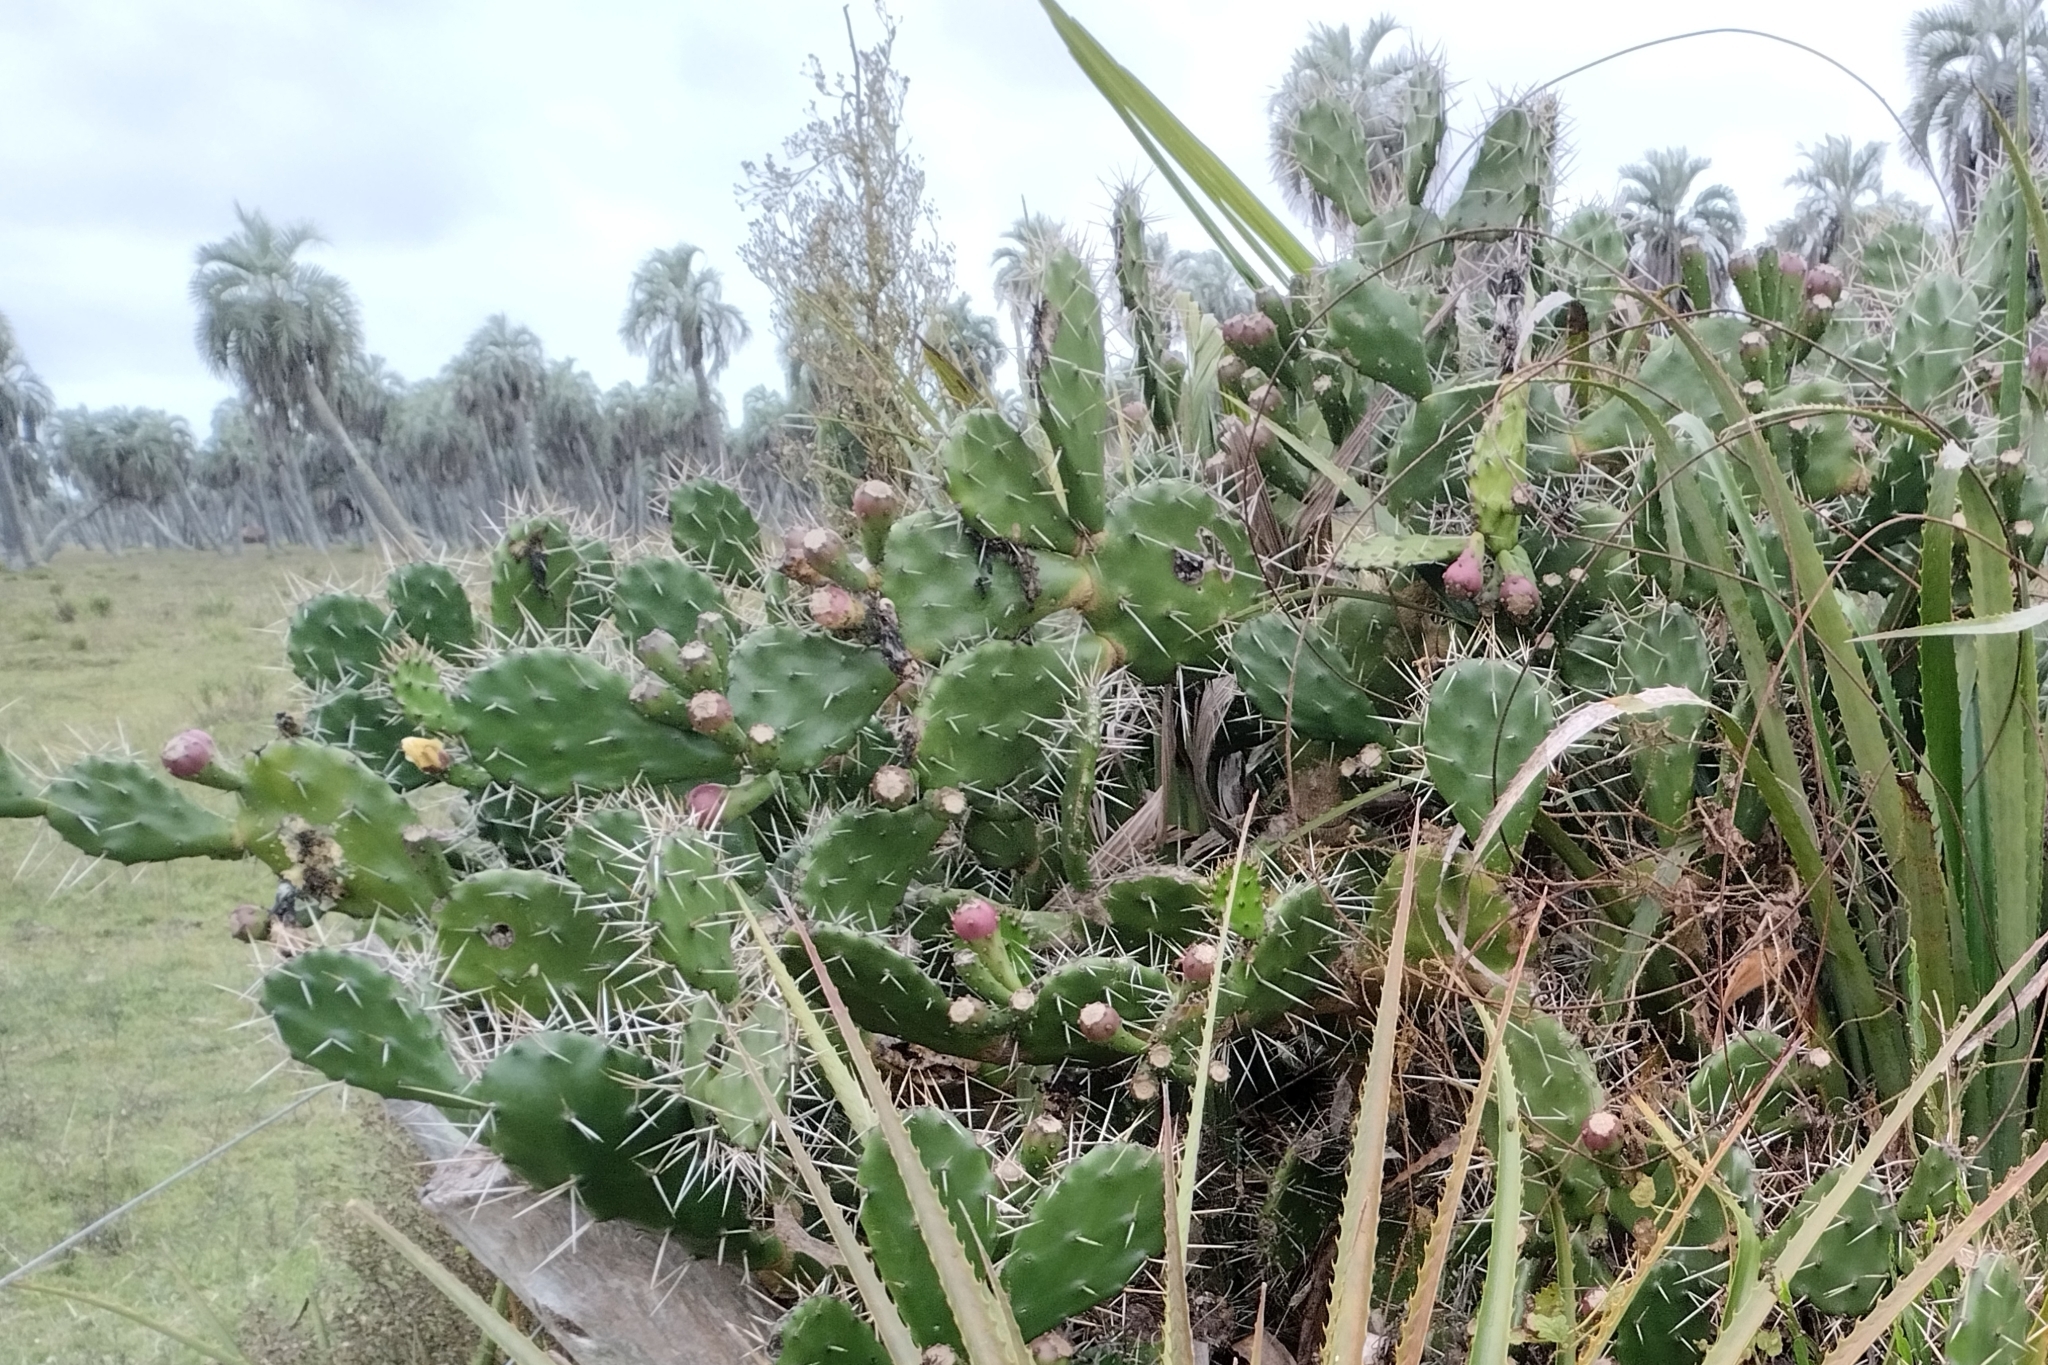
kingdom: Plantae
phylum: Tracheophyta
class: Magnoliopsida
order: Caryophyllales
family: Cactaceae
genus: Opuntia
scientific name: Opuntia arechavaletae
